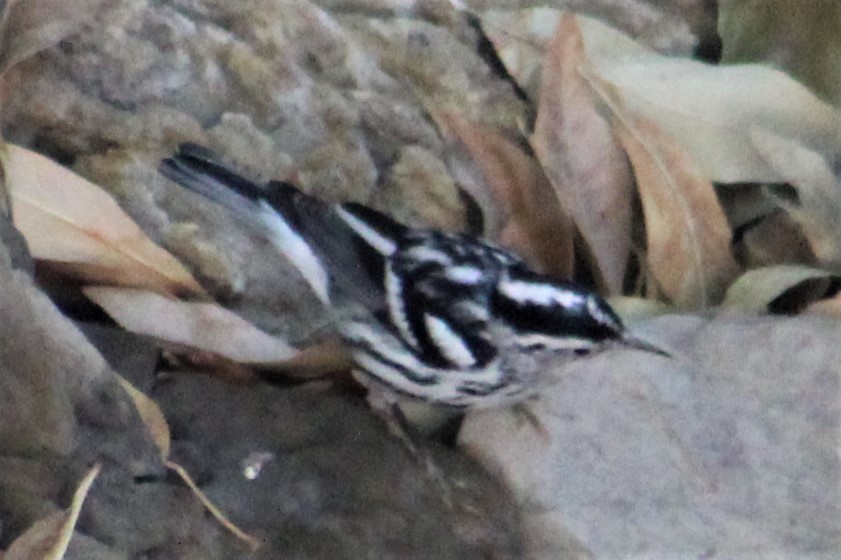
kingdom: Animalia
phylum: Chordata
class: Aves
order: Passeriformes
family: Parulidae
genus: Mniotilta
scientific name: Mniotilta varia
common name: Black-and-white warbler
